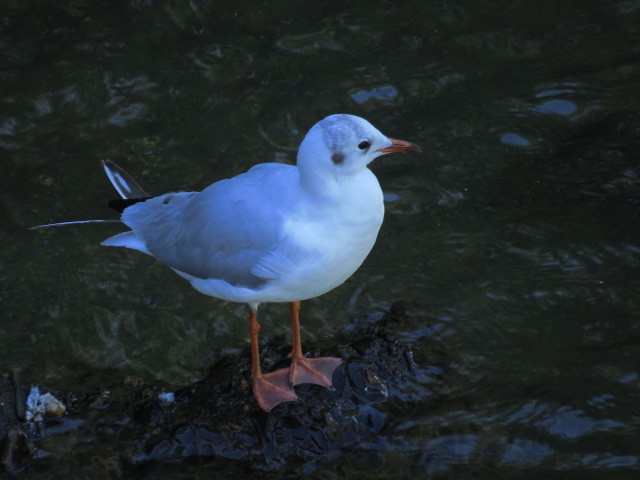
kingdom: Animalia
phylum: Chordata
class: Aves
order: Charadriiformes
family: Laridae
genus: Chroicocephalus
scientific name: Chroicocephalus ridibundus
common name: Black-headed gull
